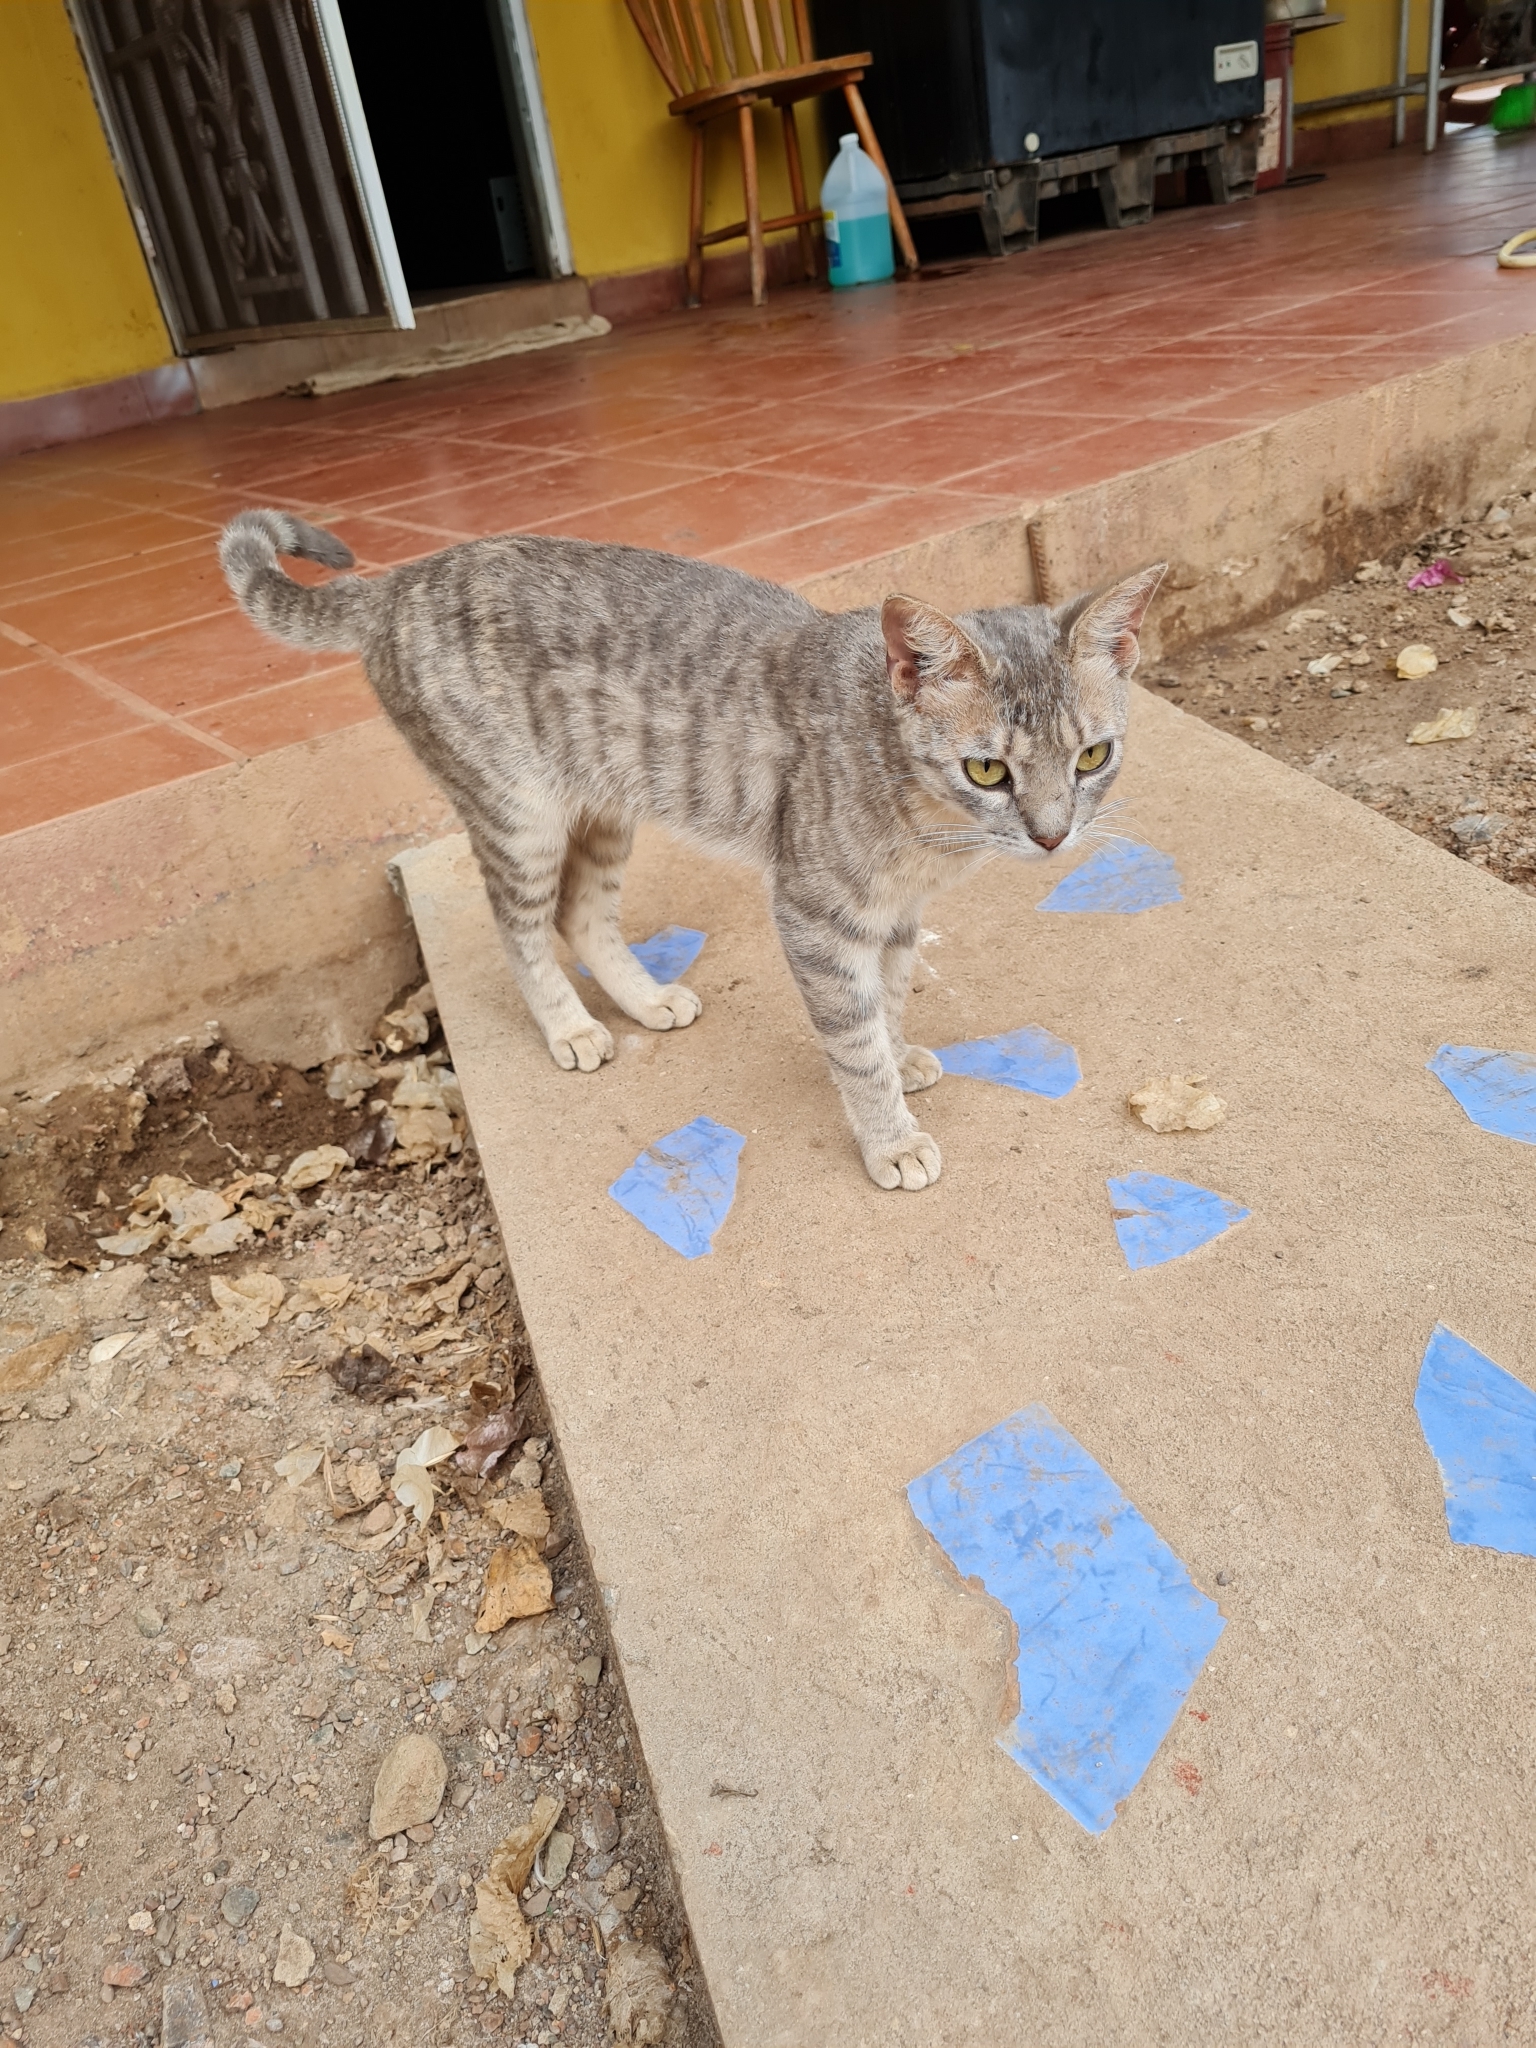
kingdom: Animalia
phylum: Chordata
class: Mammalia
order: Carnivora
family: Felidae
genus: Felis
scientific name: Felis catus
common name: Domestic cat
